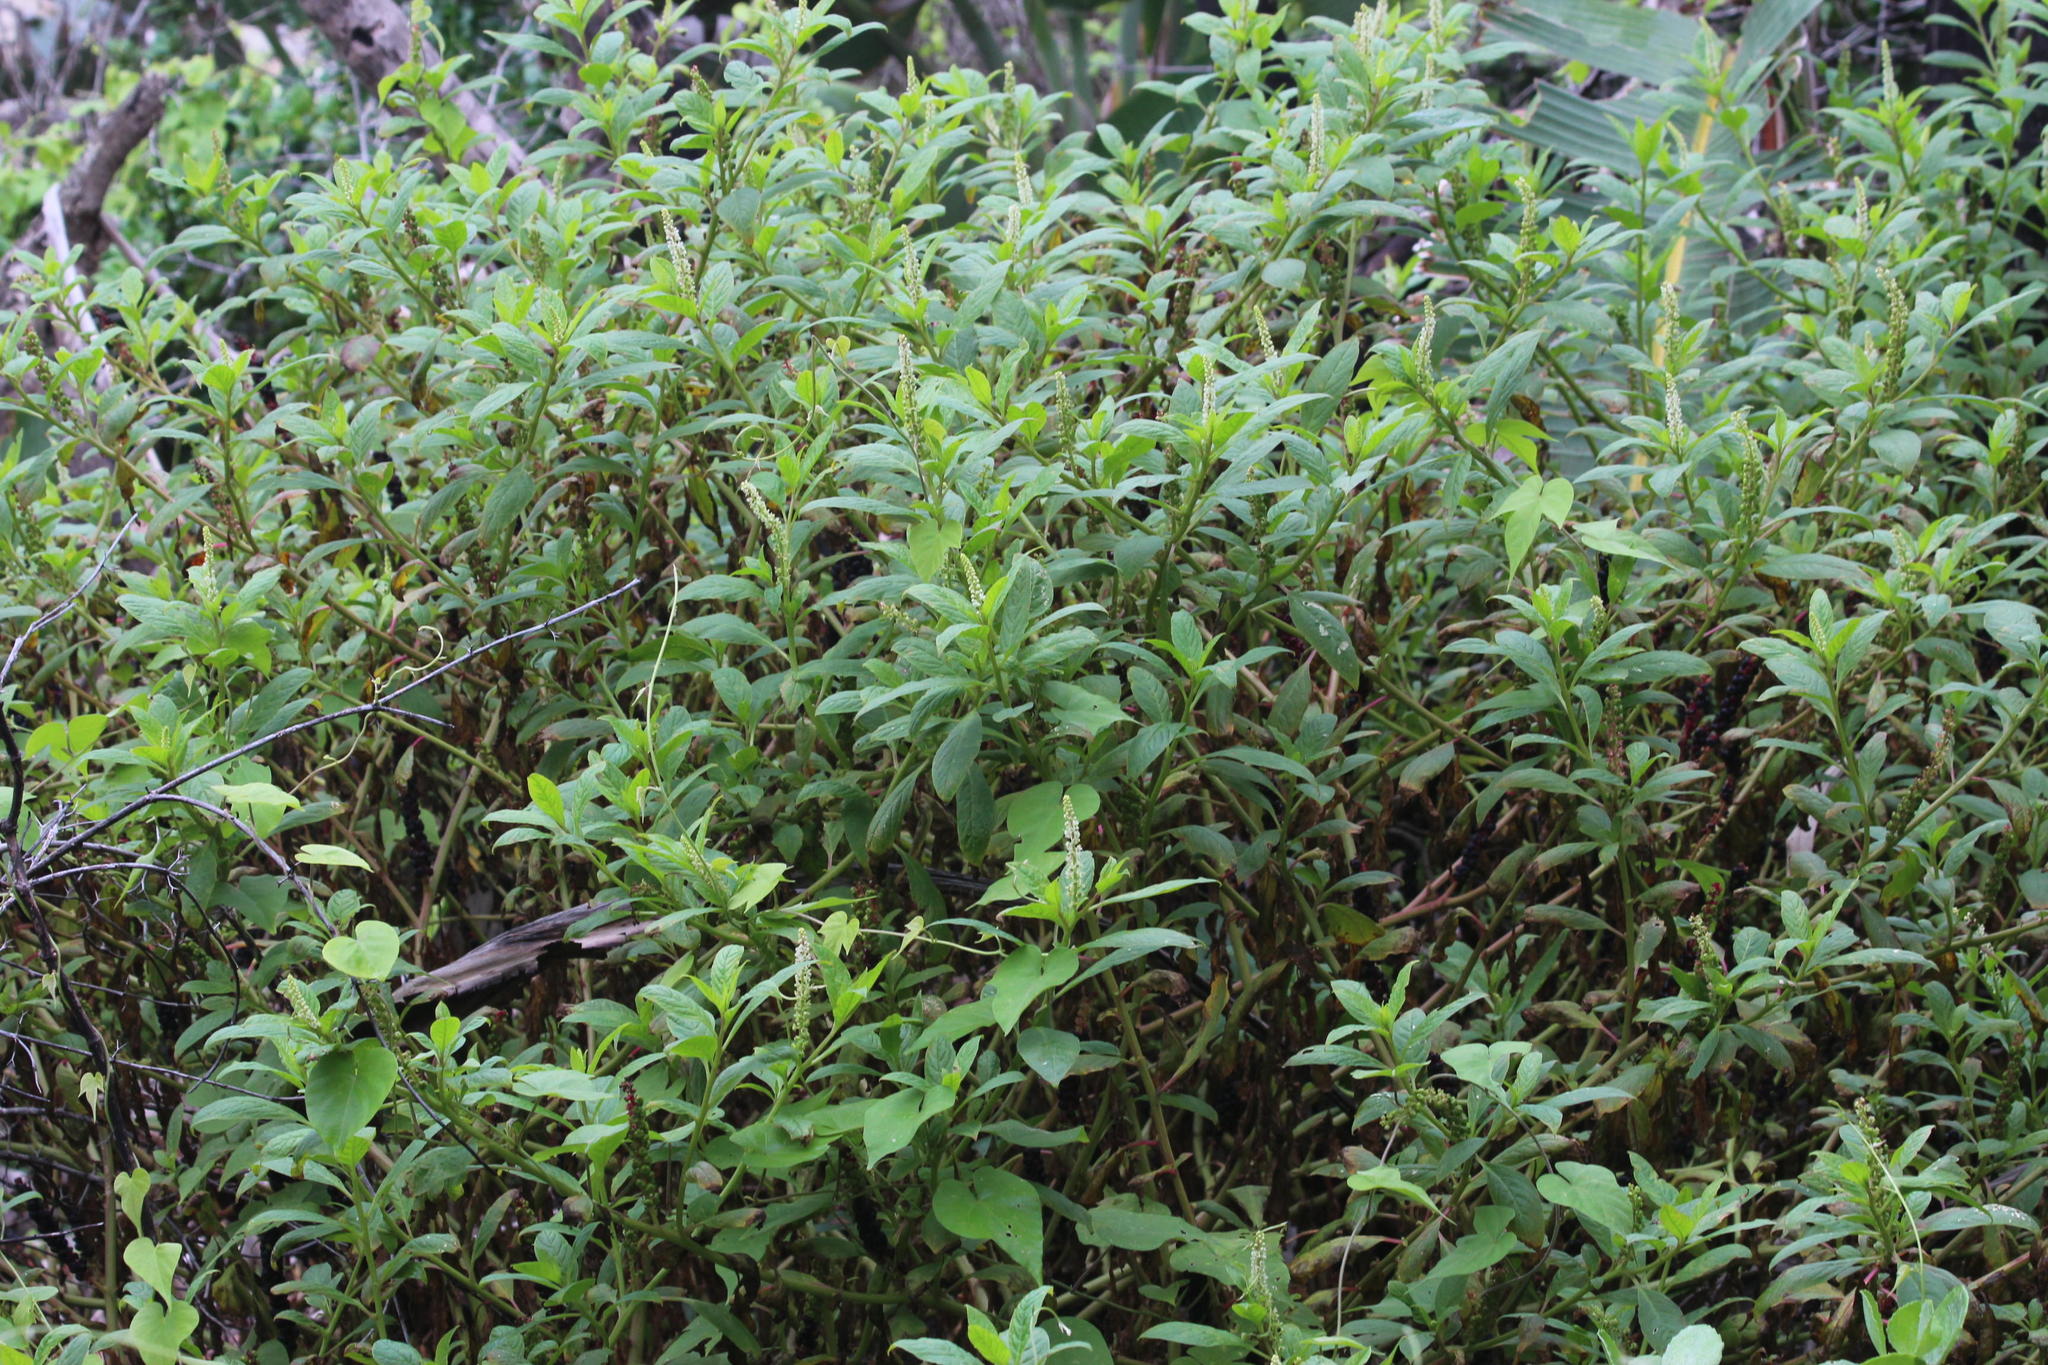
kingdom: Plantae
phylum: Tracheophyta
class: Magnoliopsida
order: Caryophyllales
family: Phytolaccaceae
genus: Phytolacca
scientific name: Phytolacca icosandra
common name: Button pokeweed
